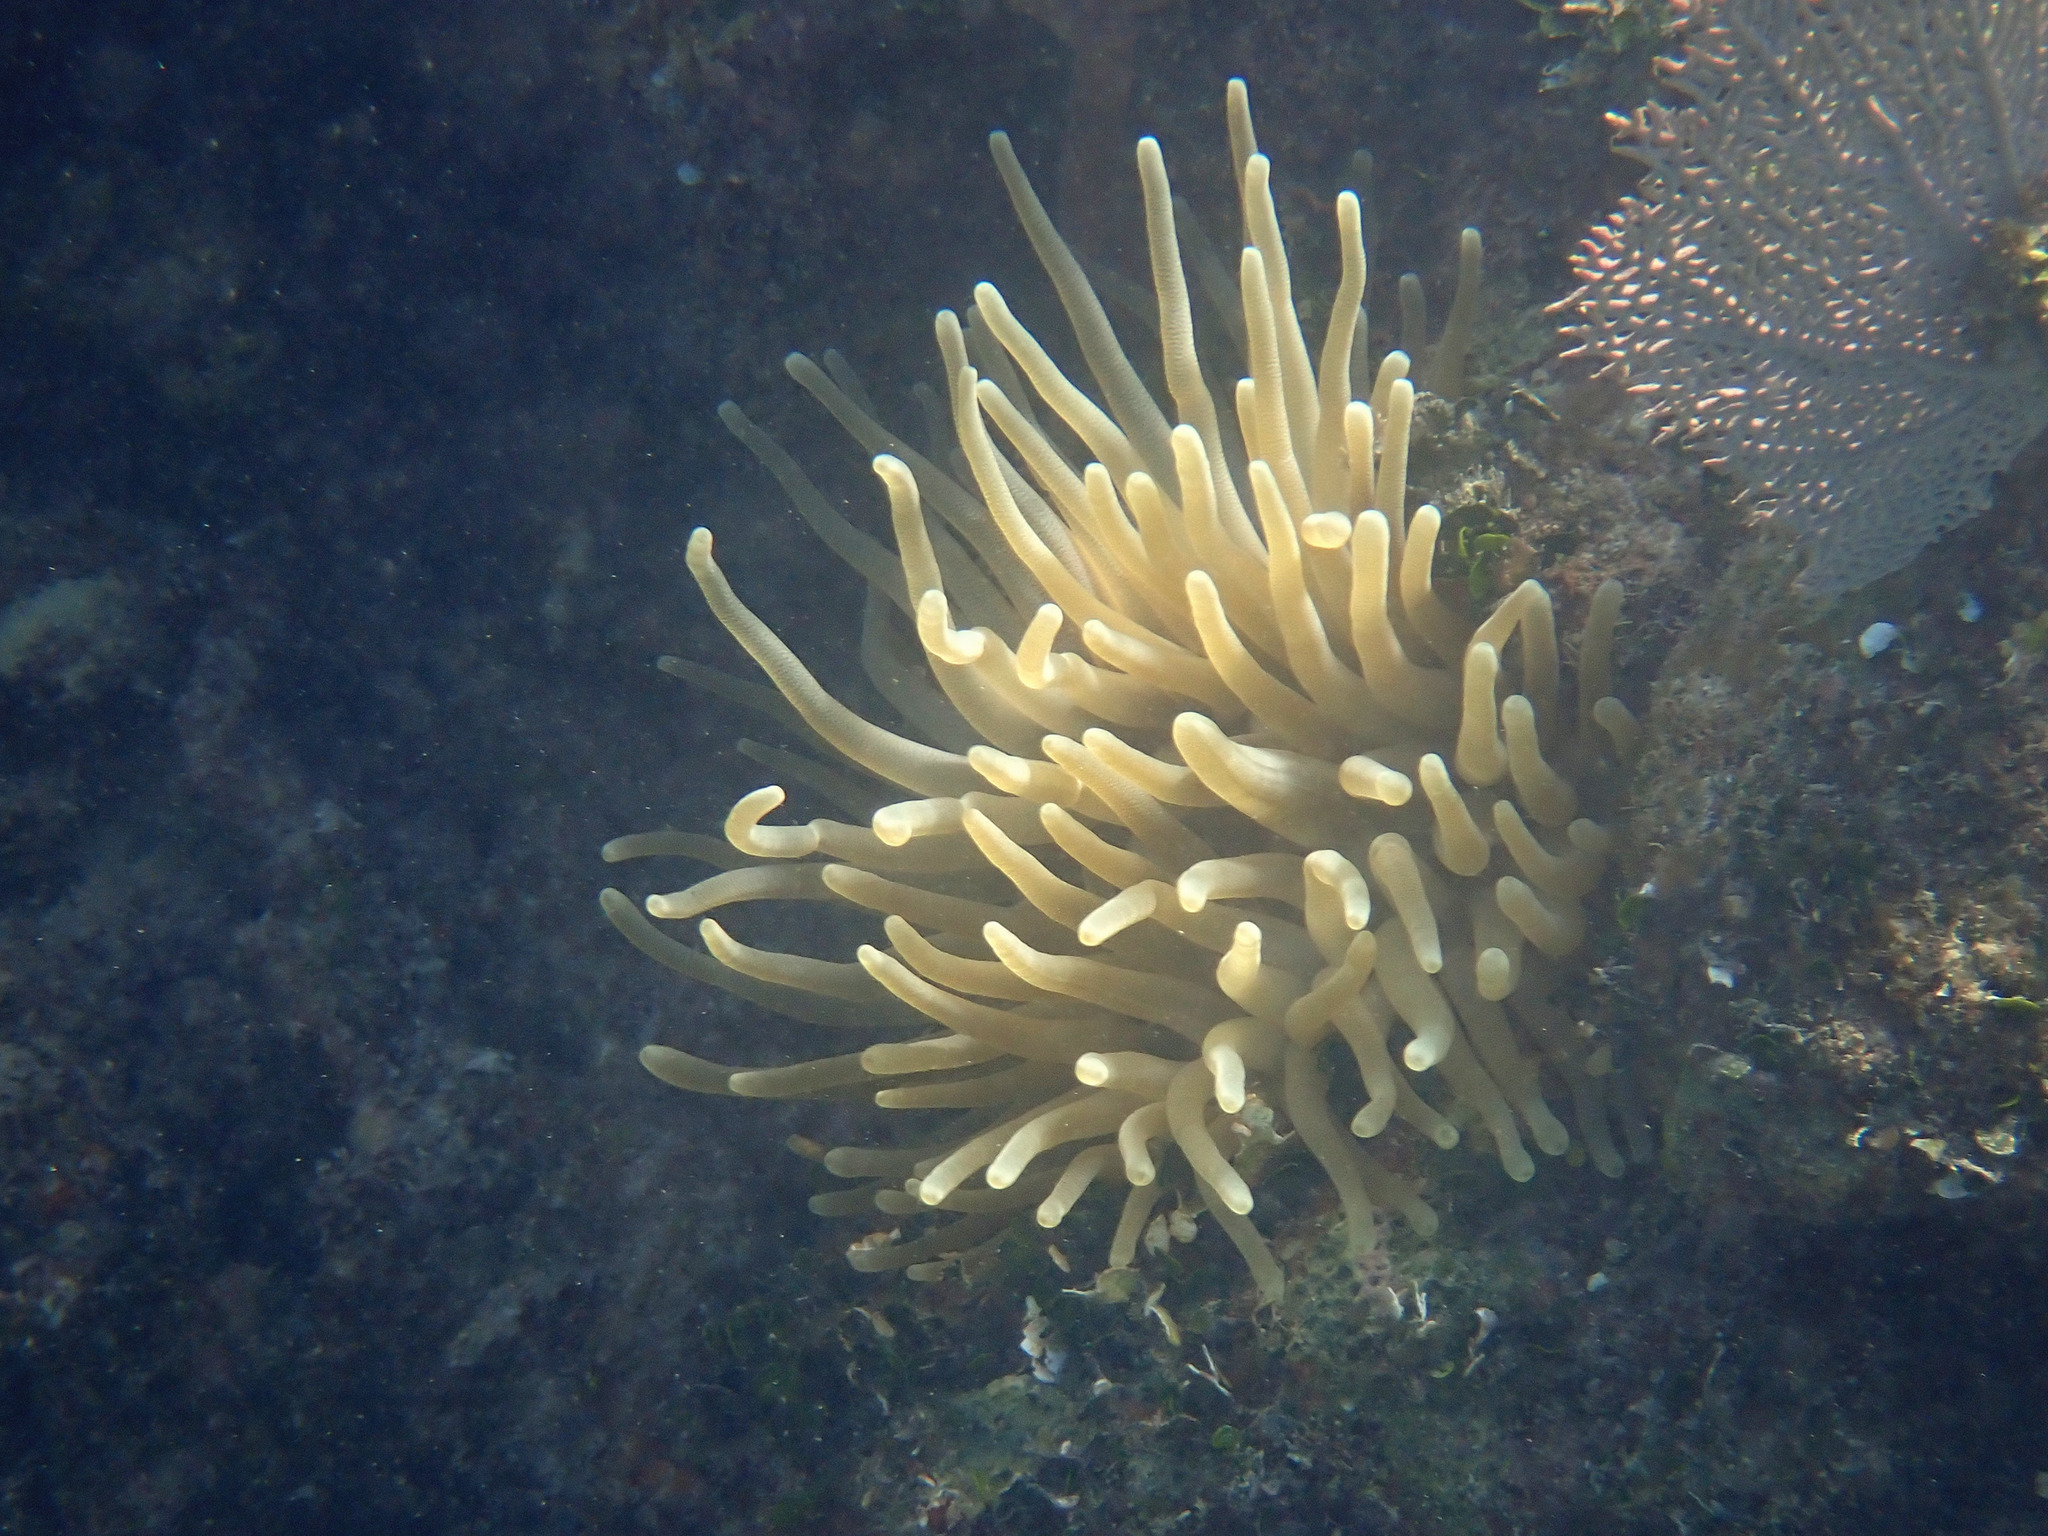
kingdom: Animalia
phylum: Cnidaria
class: Anthozoa
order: Actiniaria
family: Actiniidae
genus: Condylactis
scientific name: Condylactis gigantea
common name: Giant caribbean anemone
